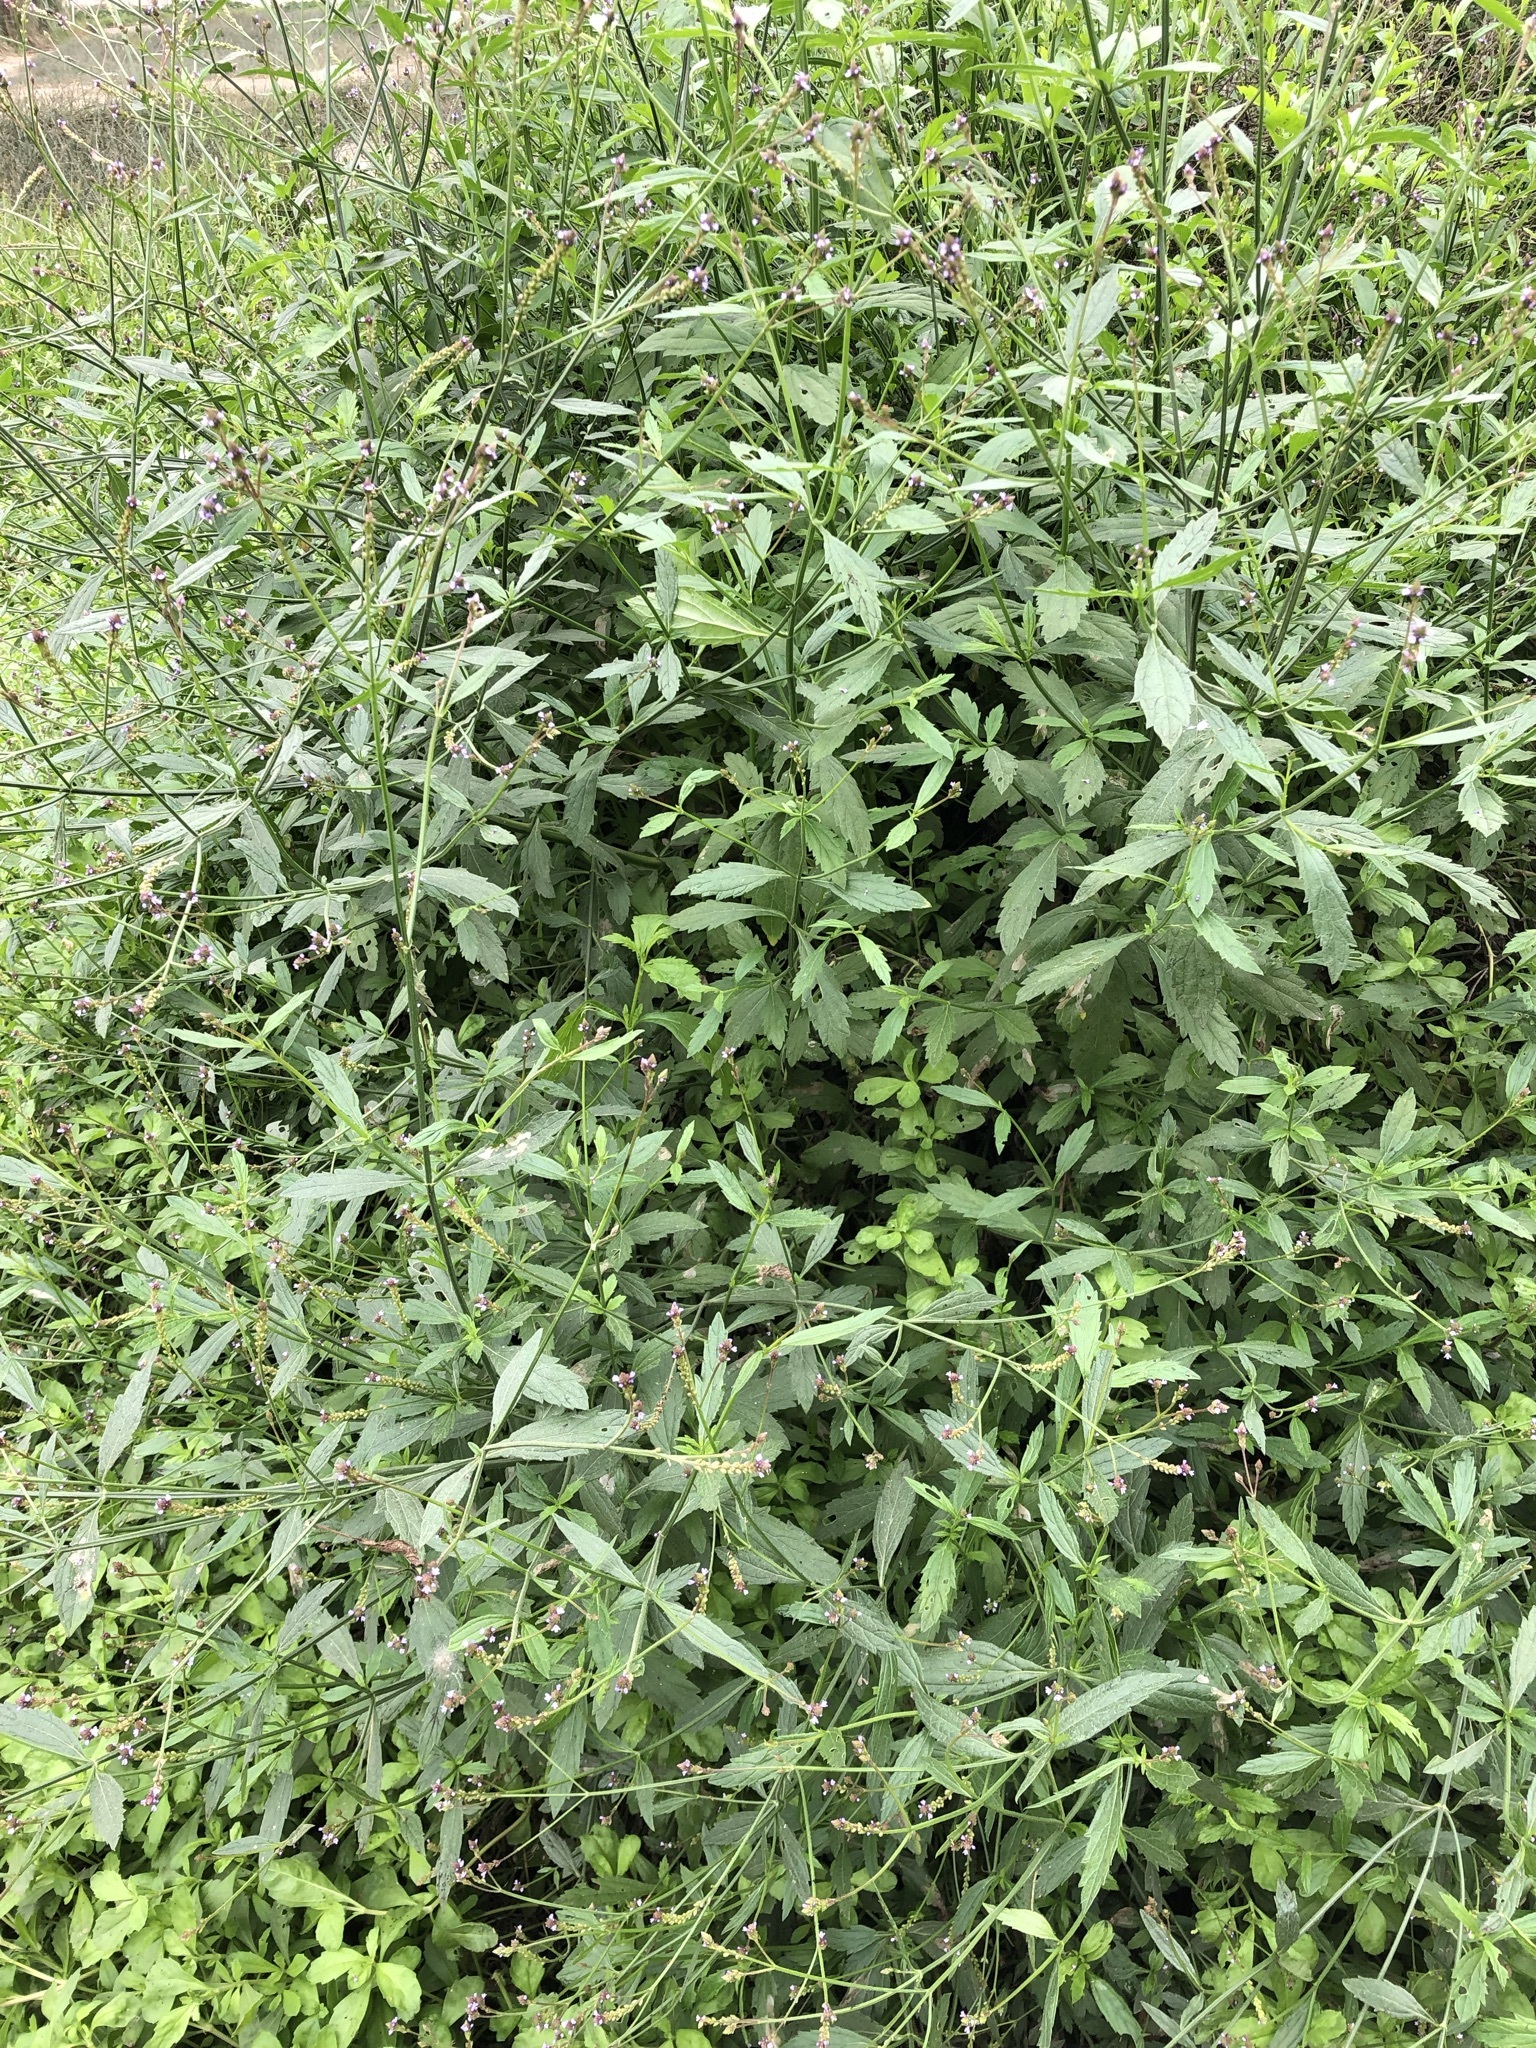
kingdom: Plantae
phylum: Tracheophyta
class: Magnoliopsida
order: Lamiales
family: Verbenaceae
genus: Verbena
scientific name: Verbena litoralis
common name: Seashore vervain
